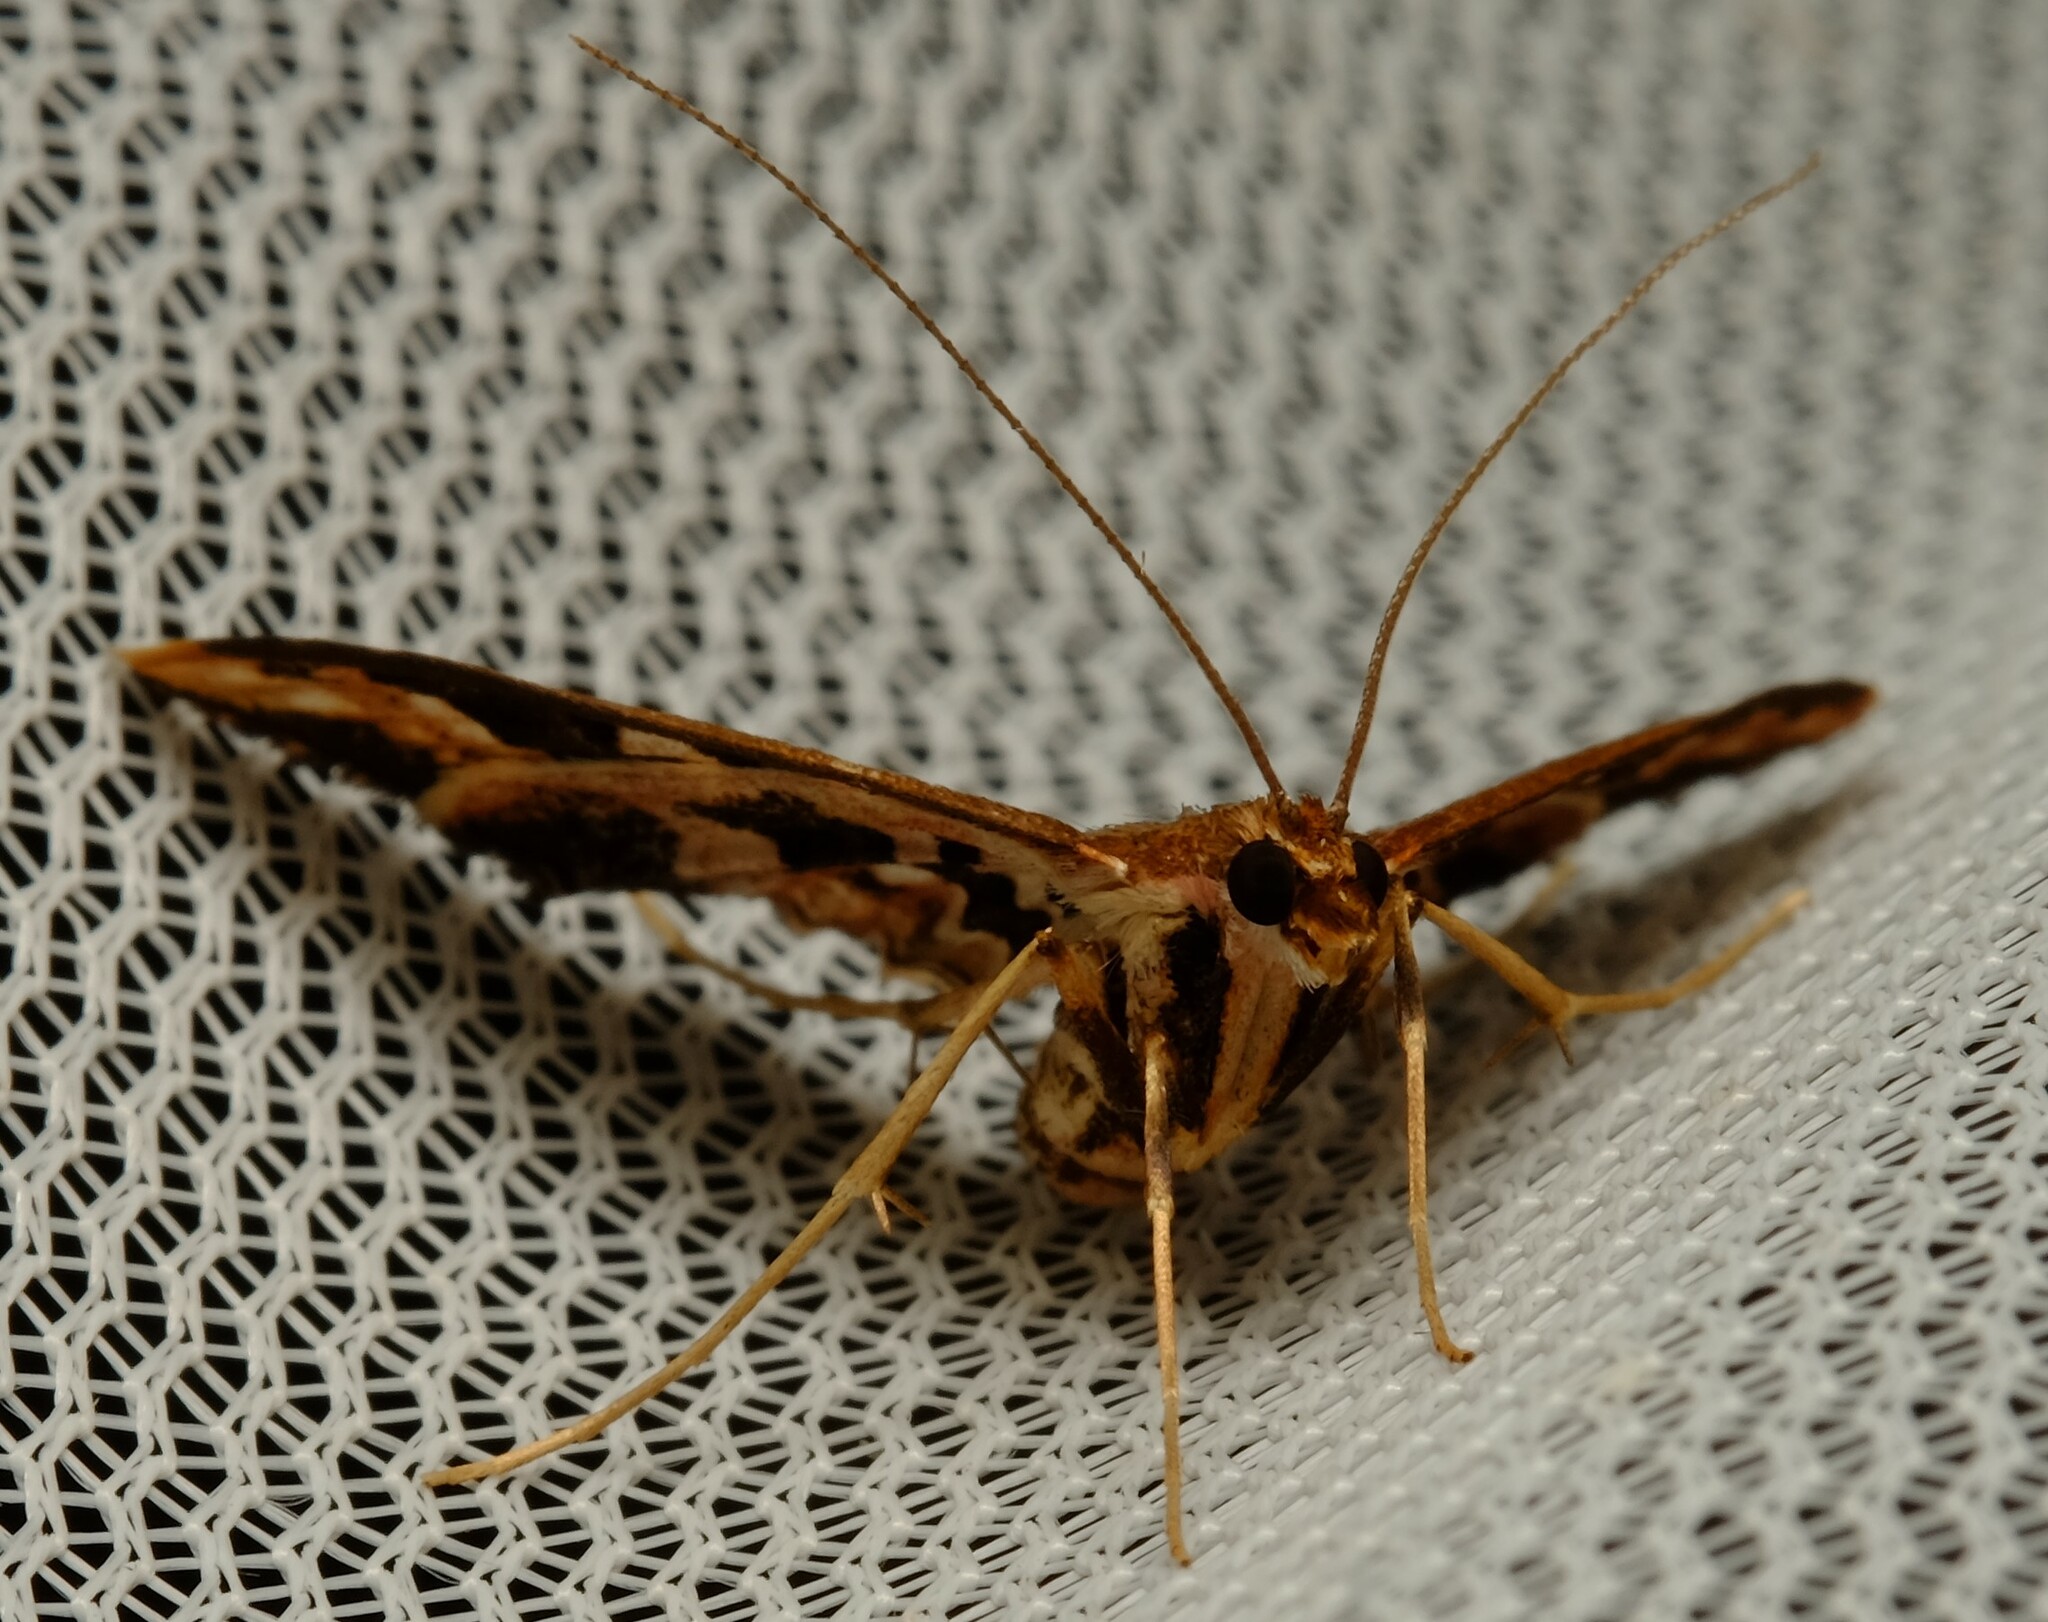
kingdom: Animalia
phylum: Arthropoda
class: Insecta
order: Lepidoptera
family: Crambidae
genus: Ischnurges
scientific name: Ischnurges illustralis
